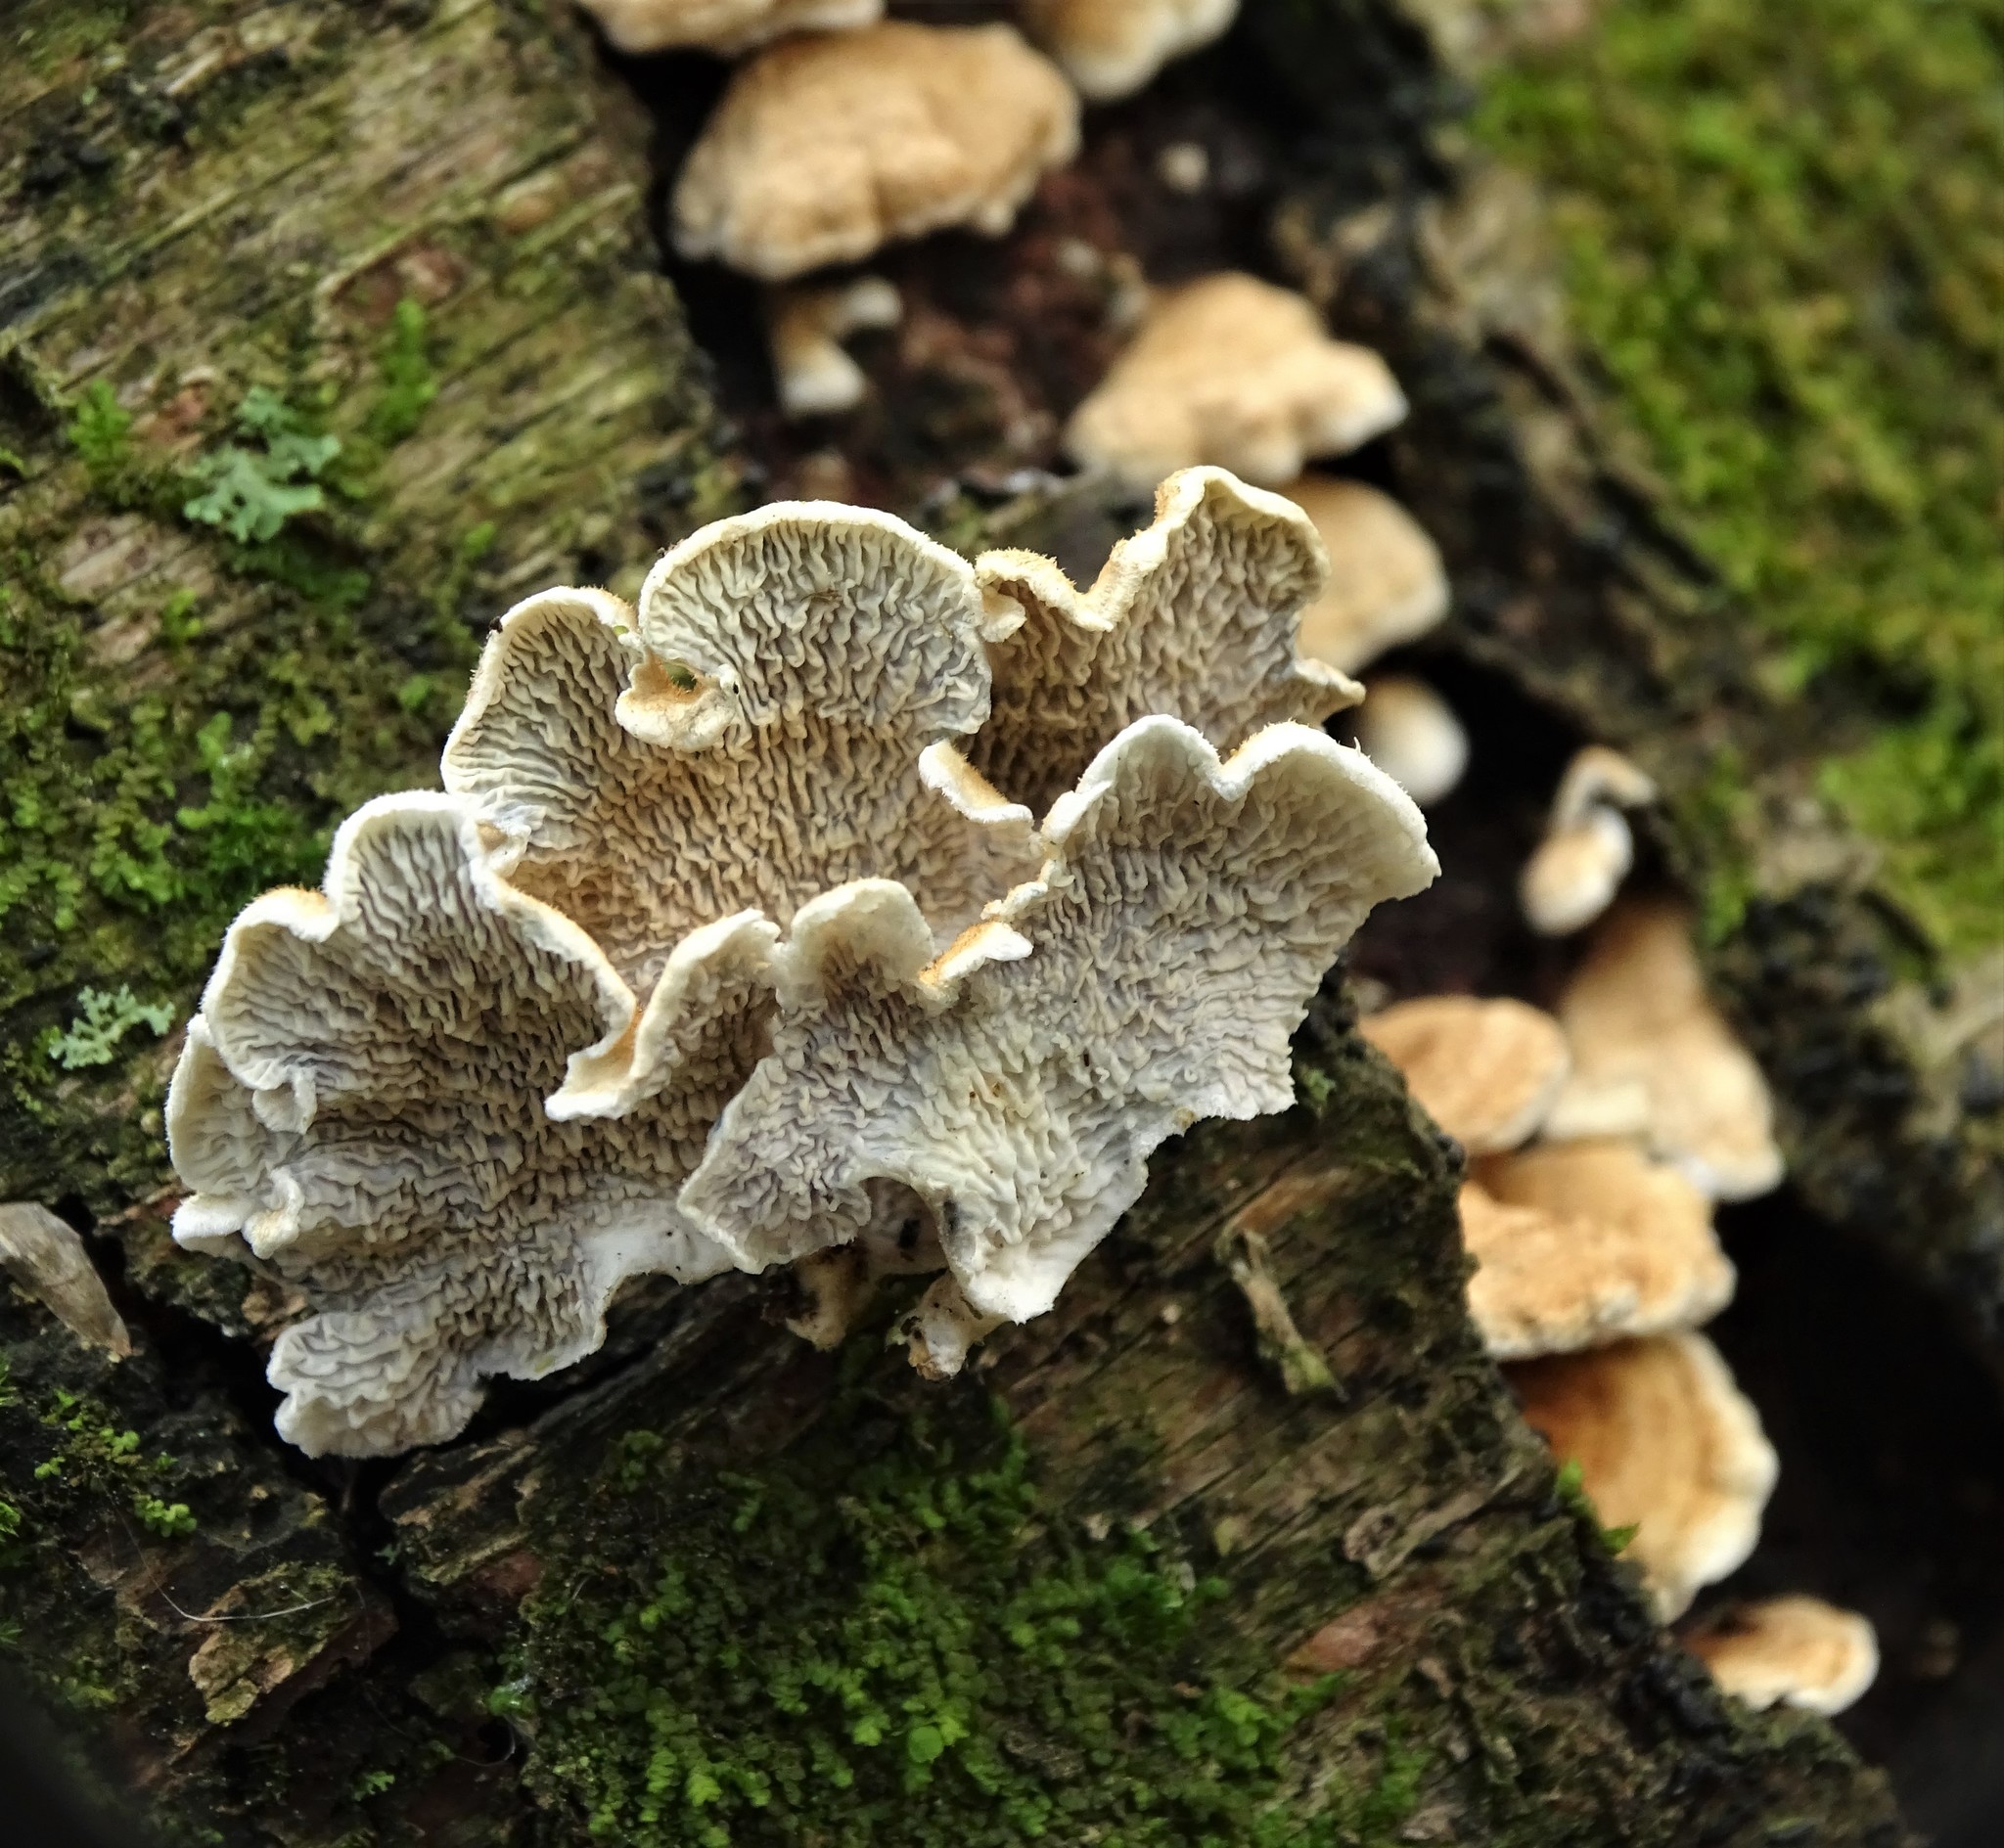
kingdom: Fungi
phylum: Basidiomycota
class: Agaricomycetes
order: Amylocorticiales
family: Amylocorticiaceae
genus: Plicaturopsis
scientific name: Plicaturopsis crispa
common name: Crimped gill
